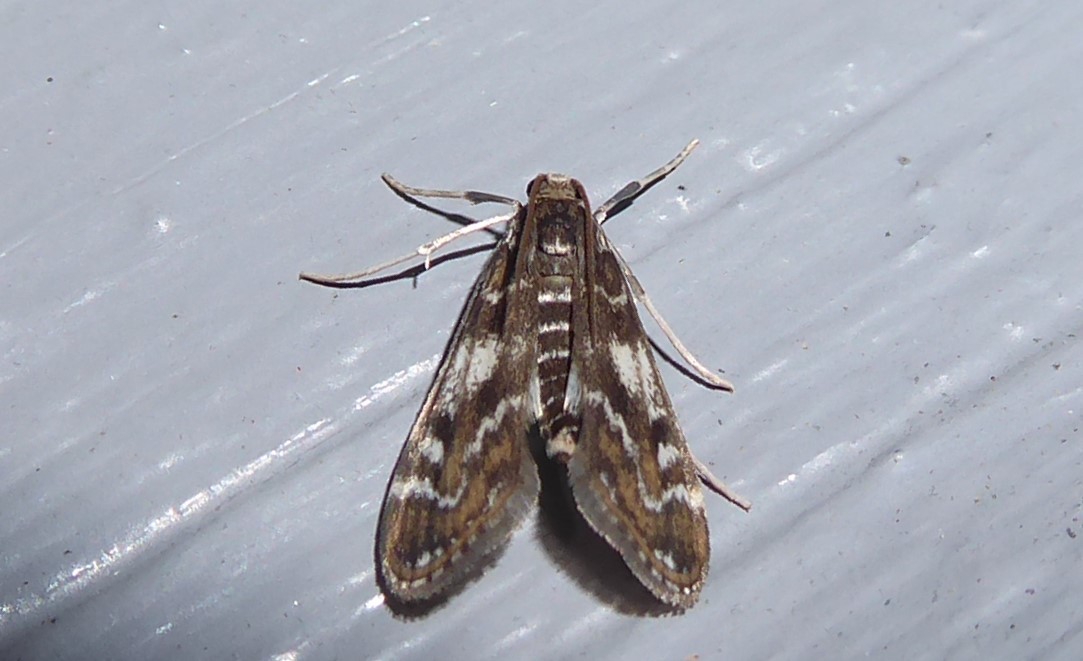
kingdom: Animalia
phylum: Arthropoda
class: Insecta
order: Lepidoptera
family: Crambidae
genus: Hygraula
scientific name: Hygraula nitens
